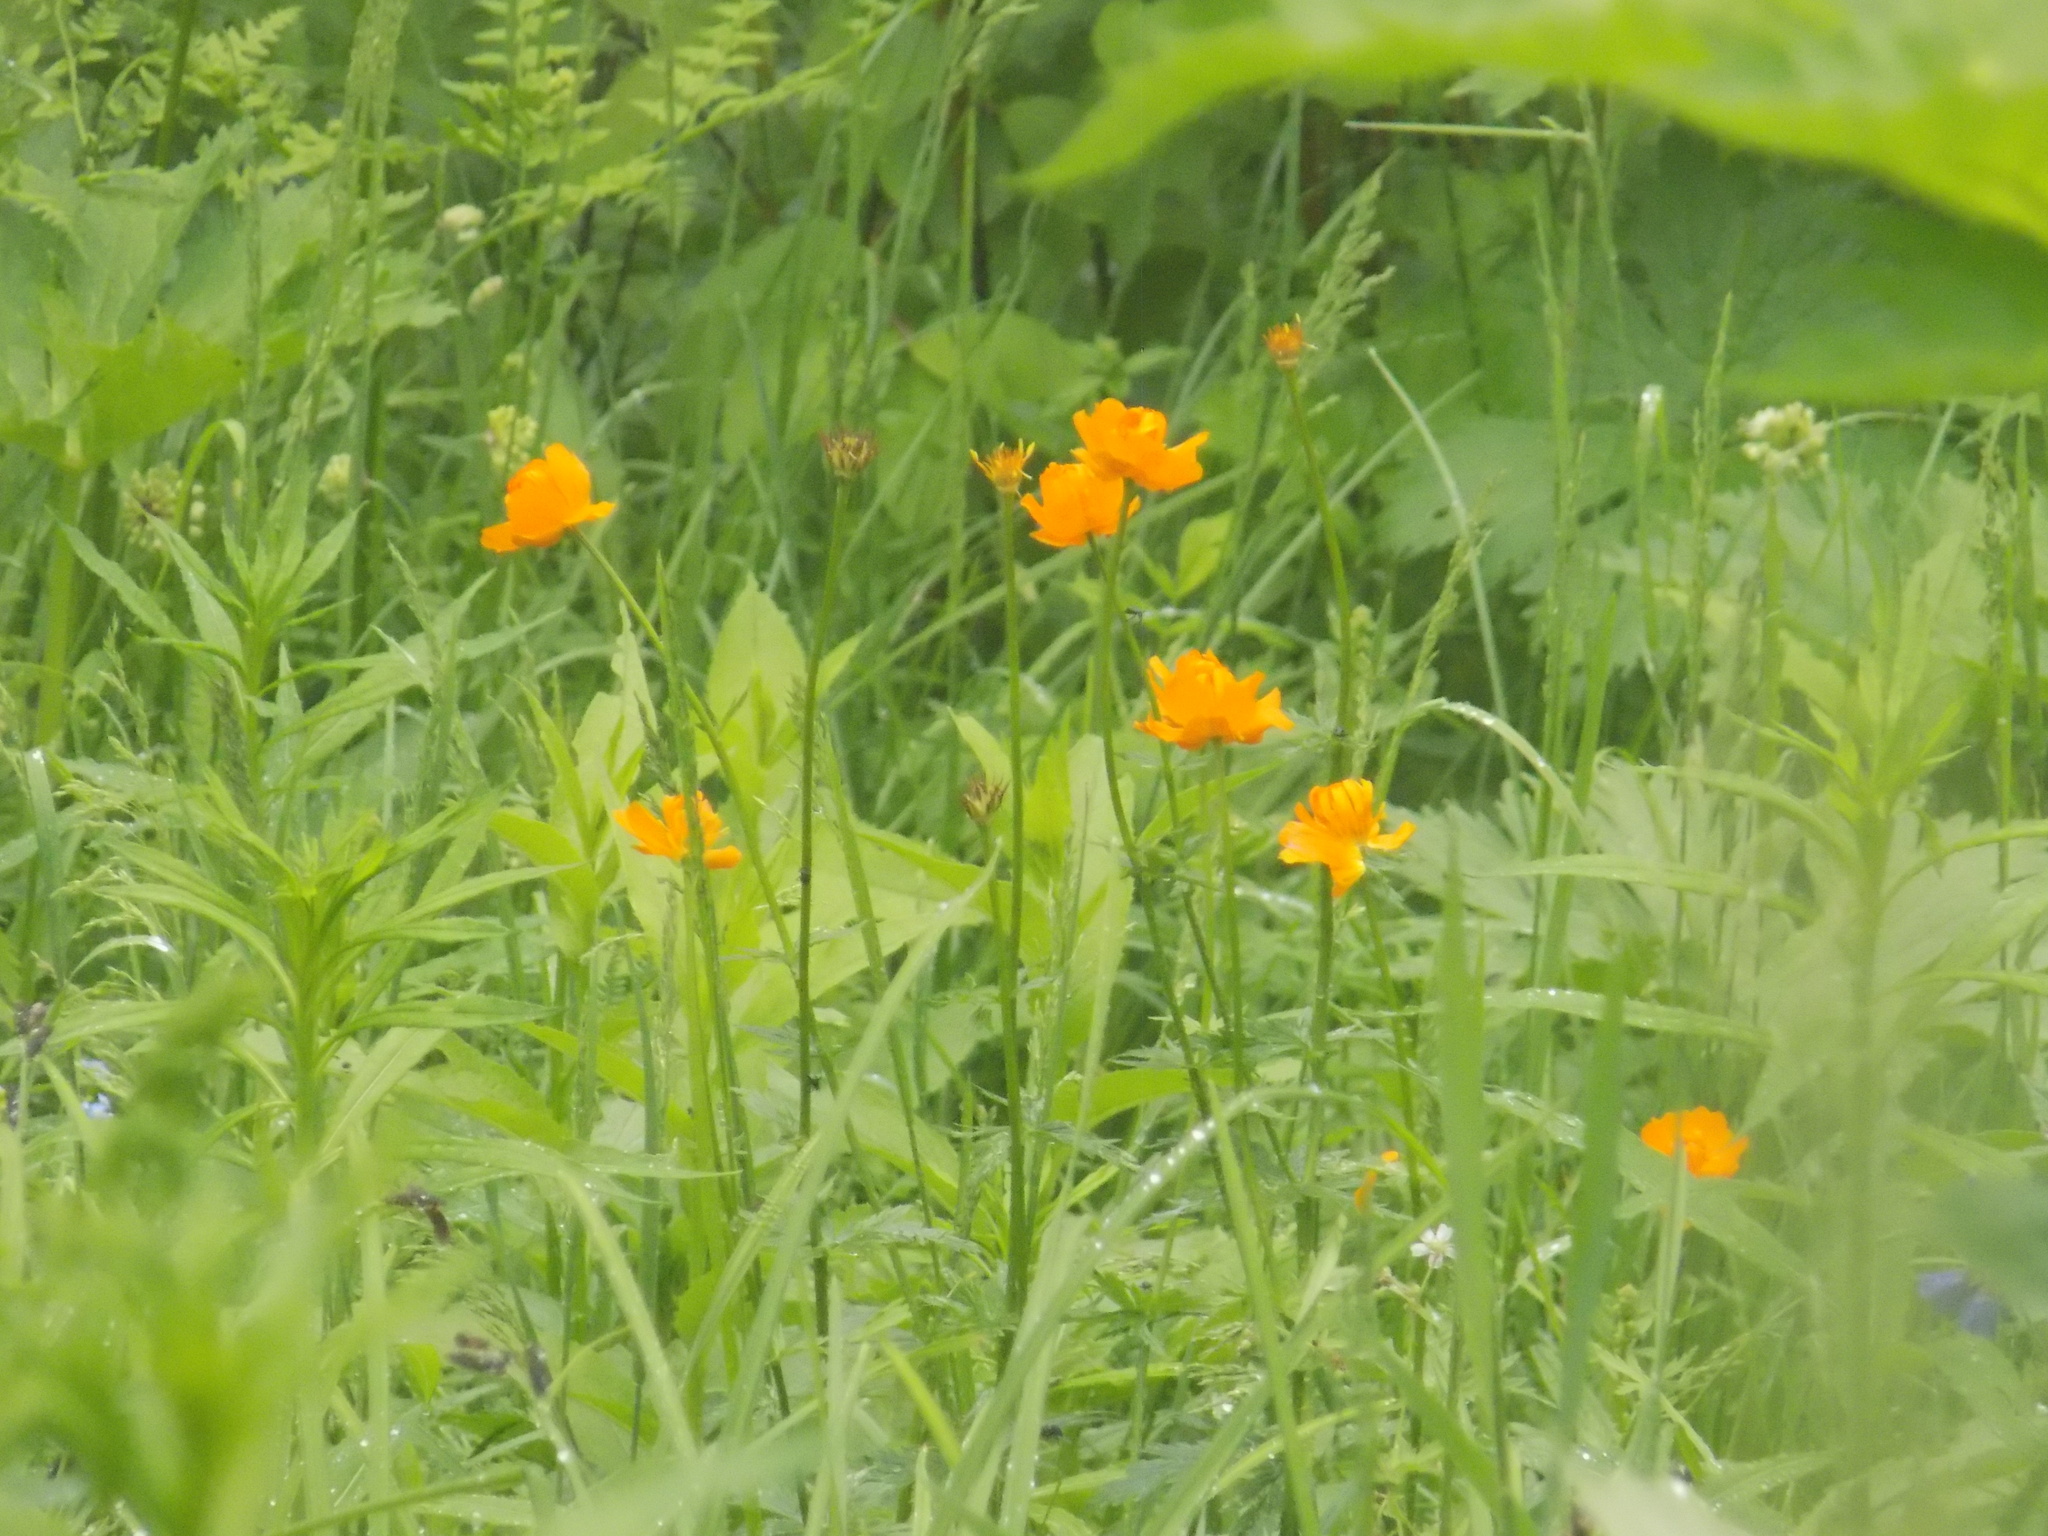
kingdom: Plantae
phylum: Tracheophyta
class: Magnoliopsida
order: Ranunculales
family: Ranunculaceae
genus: Trollius
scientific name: Trollius asiaticus
